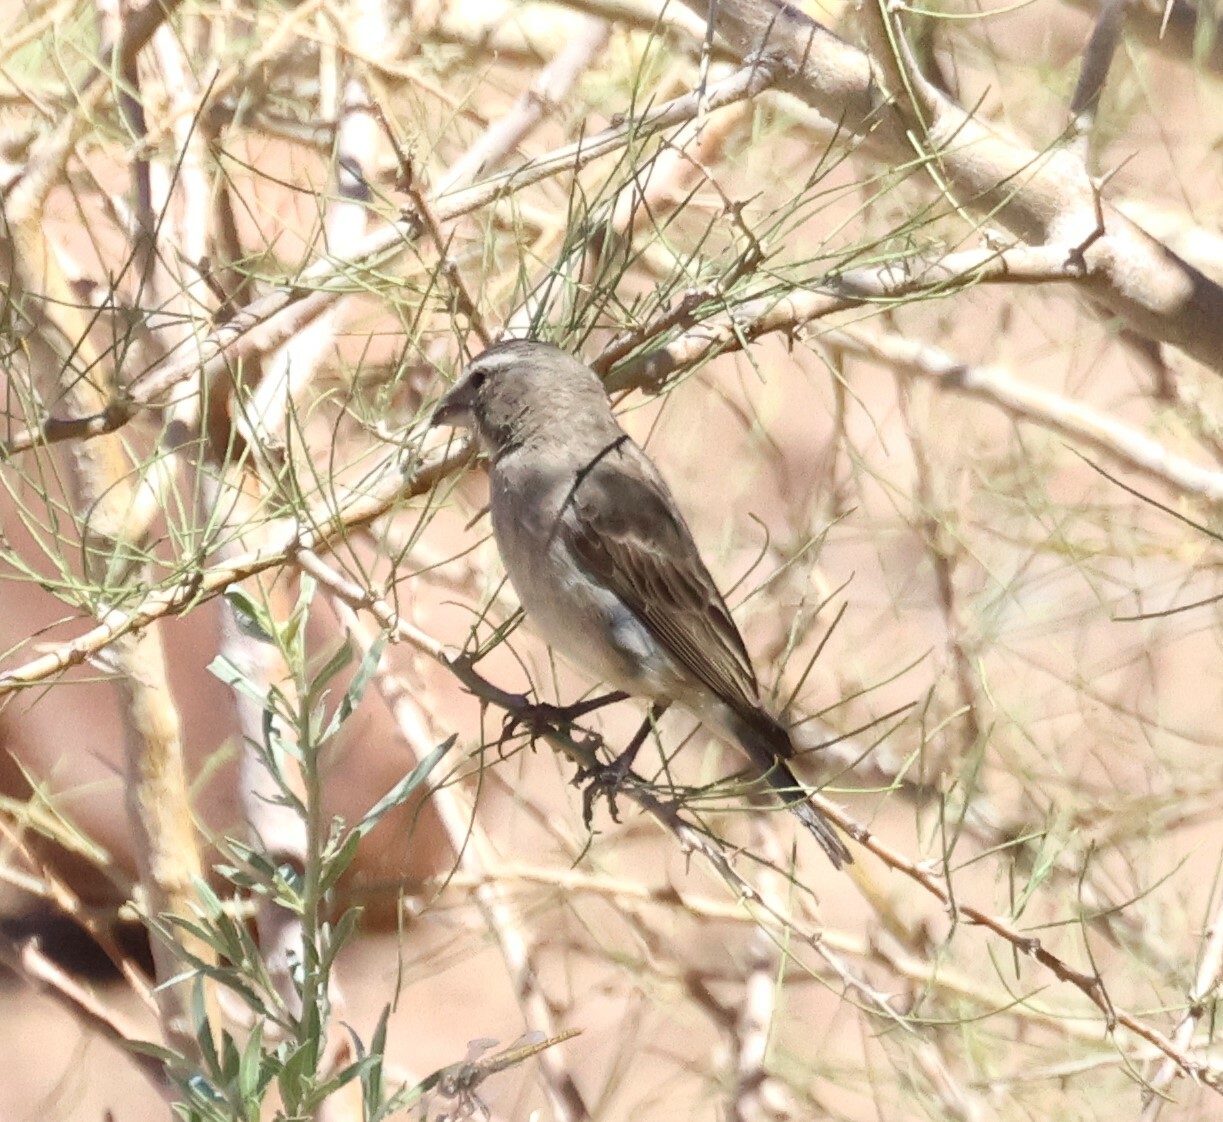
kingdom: Animalia
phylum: Chordata
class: Aves
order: Passeriformes
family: Fringillidae
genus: Crithagra
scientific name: Crithagra albogularis
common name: White-throated canary
